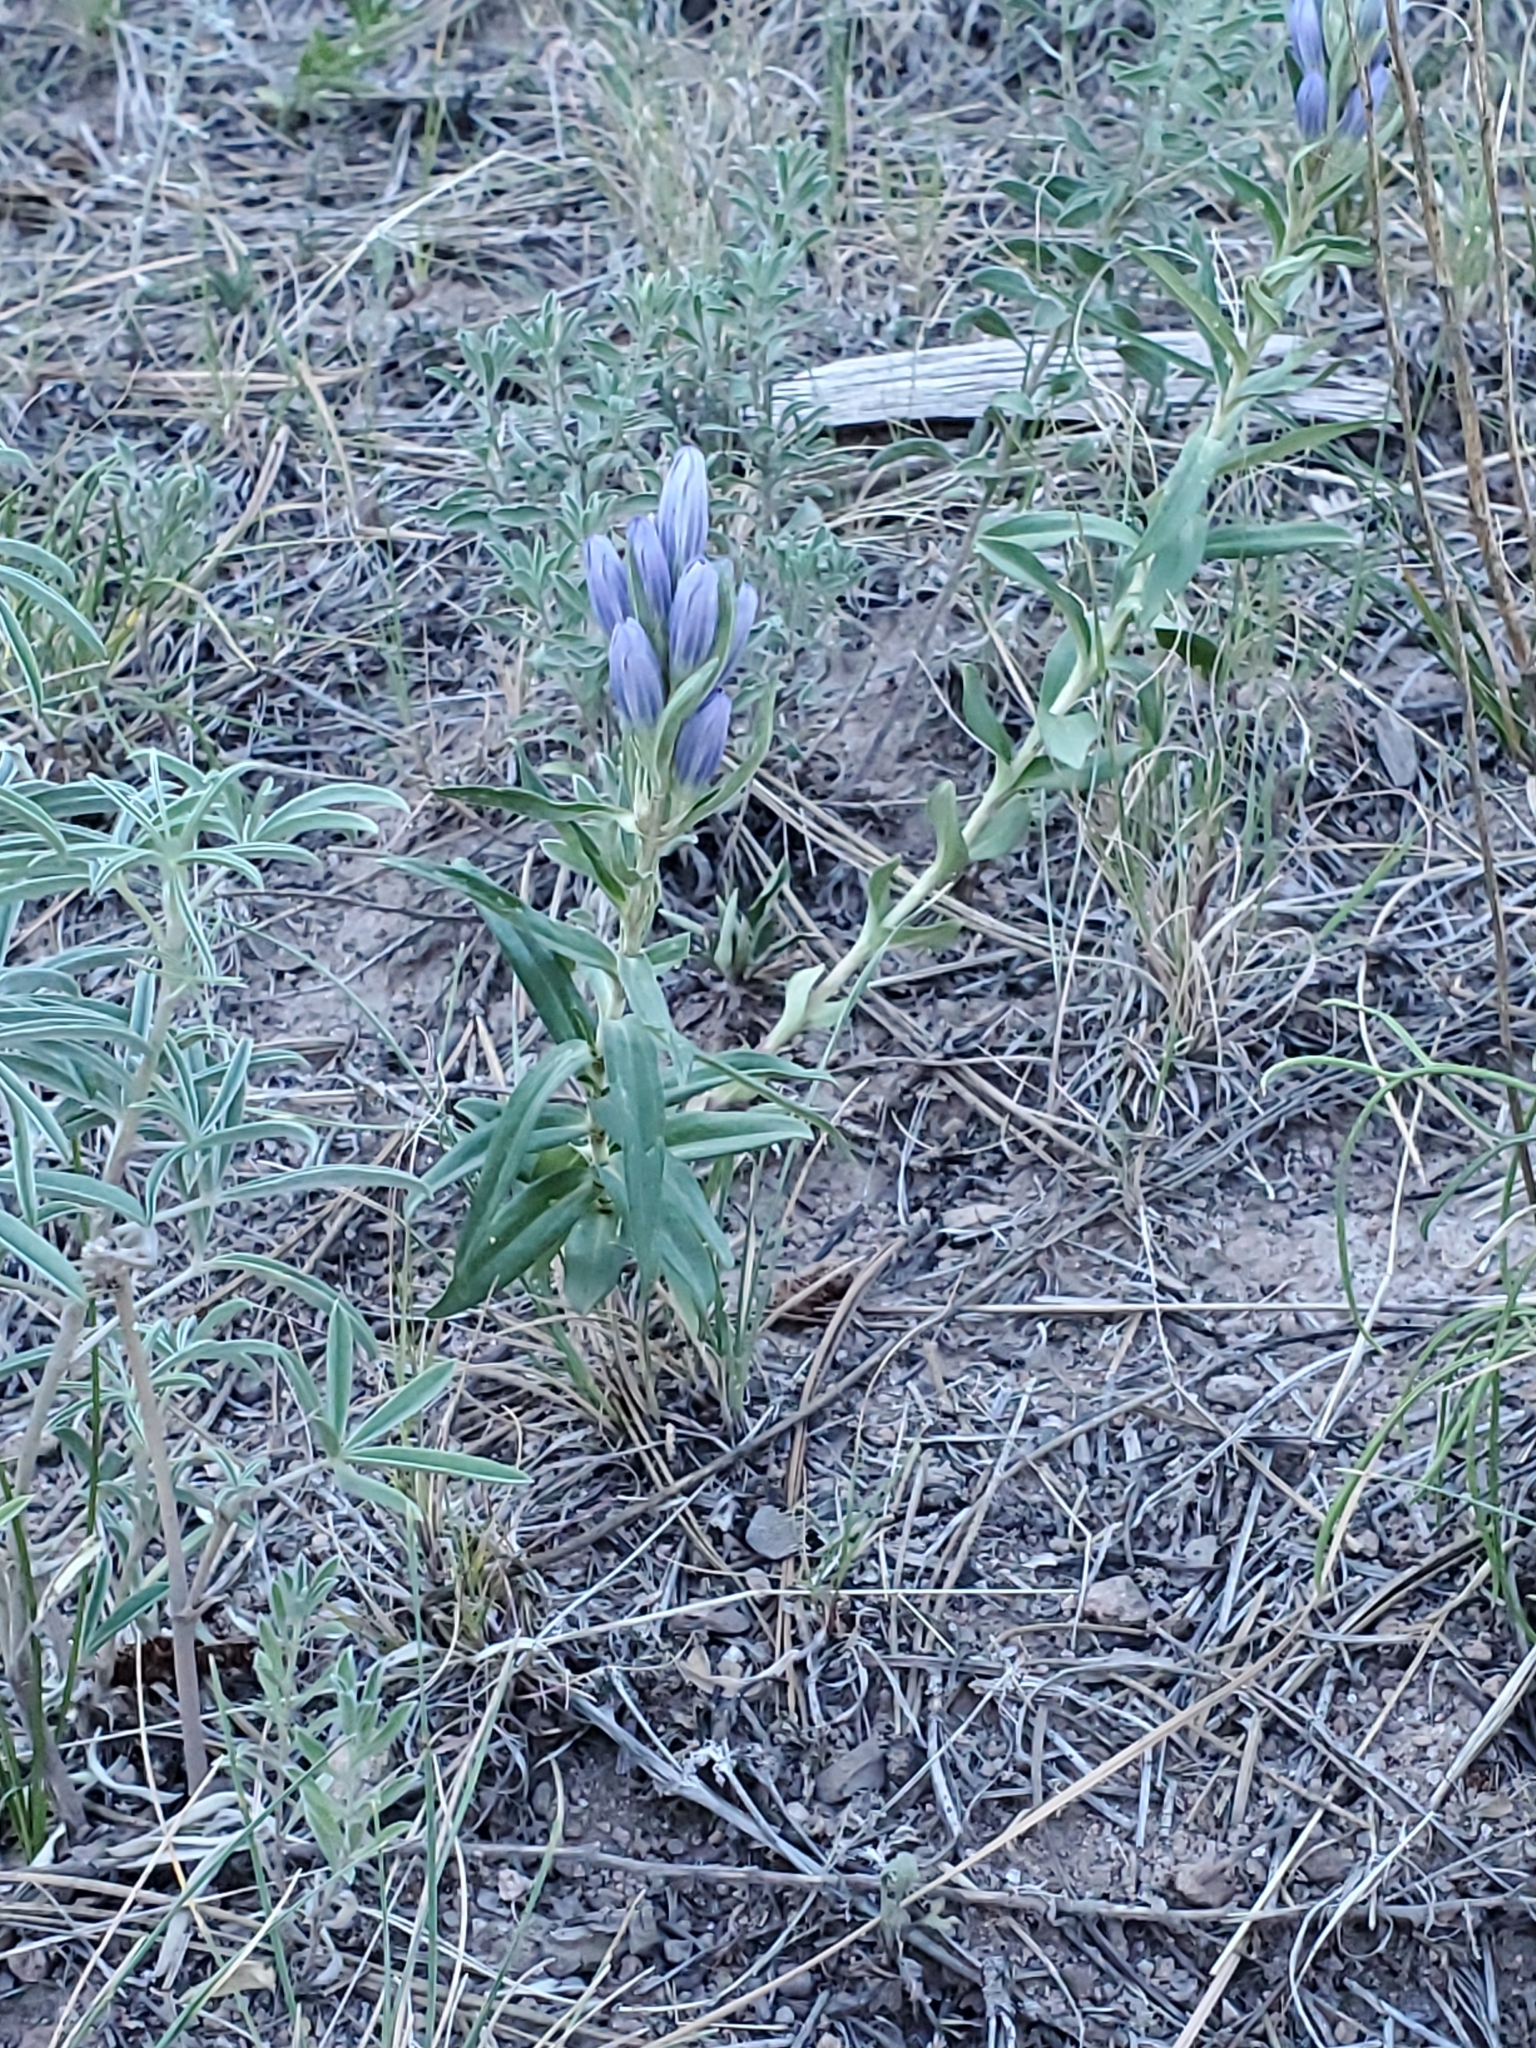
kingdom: Plantae
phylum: Tracheophyta
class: Magnoliopsida
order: Gentianales
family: Gentianaceae
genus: Gentiana
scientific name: Gentiana affinis
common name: Rocky mountain gentian
